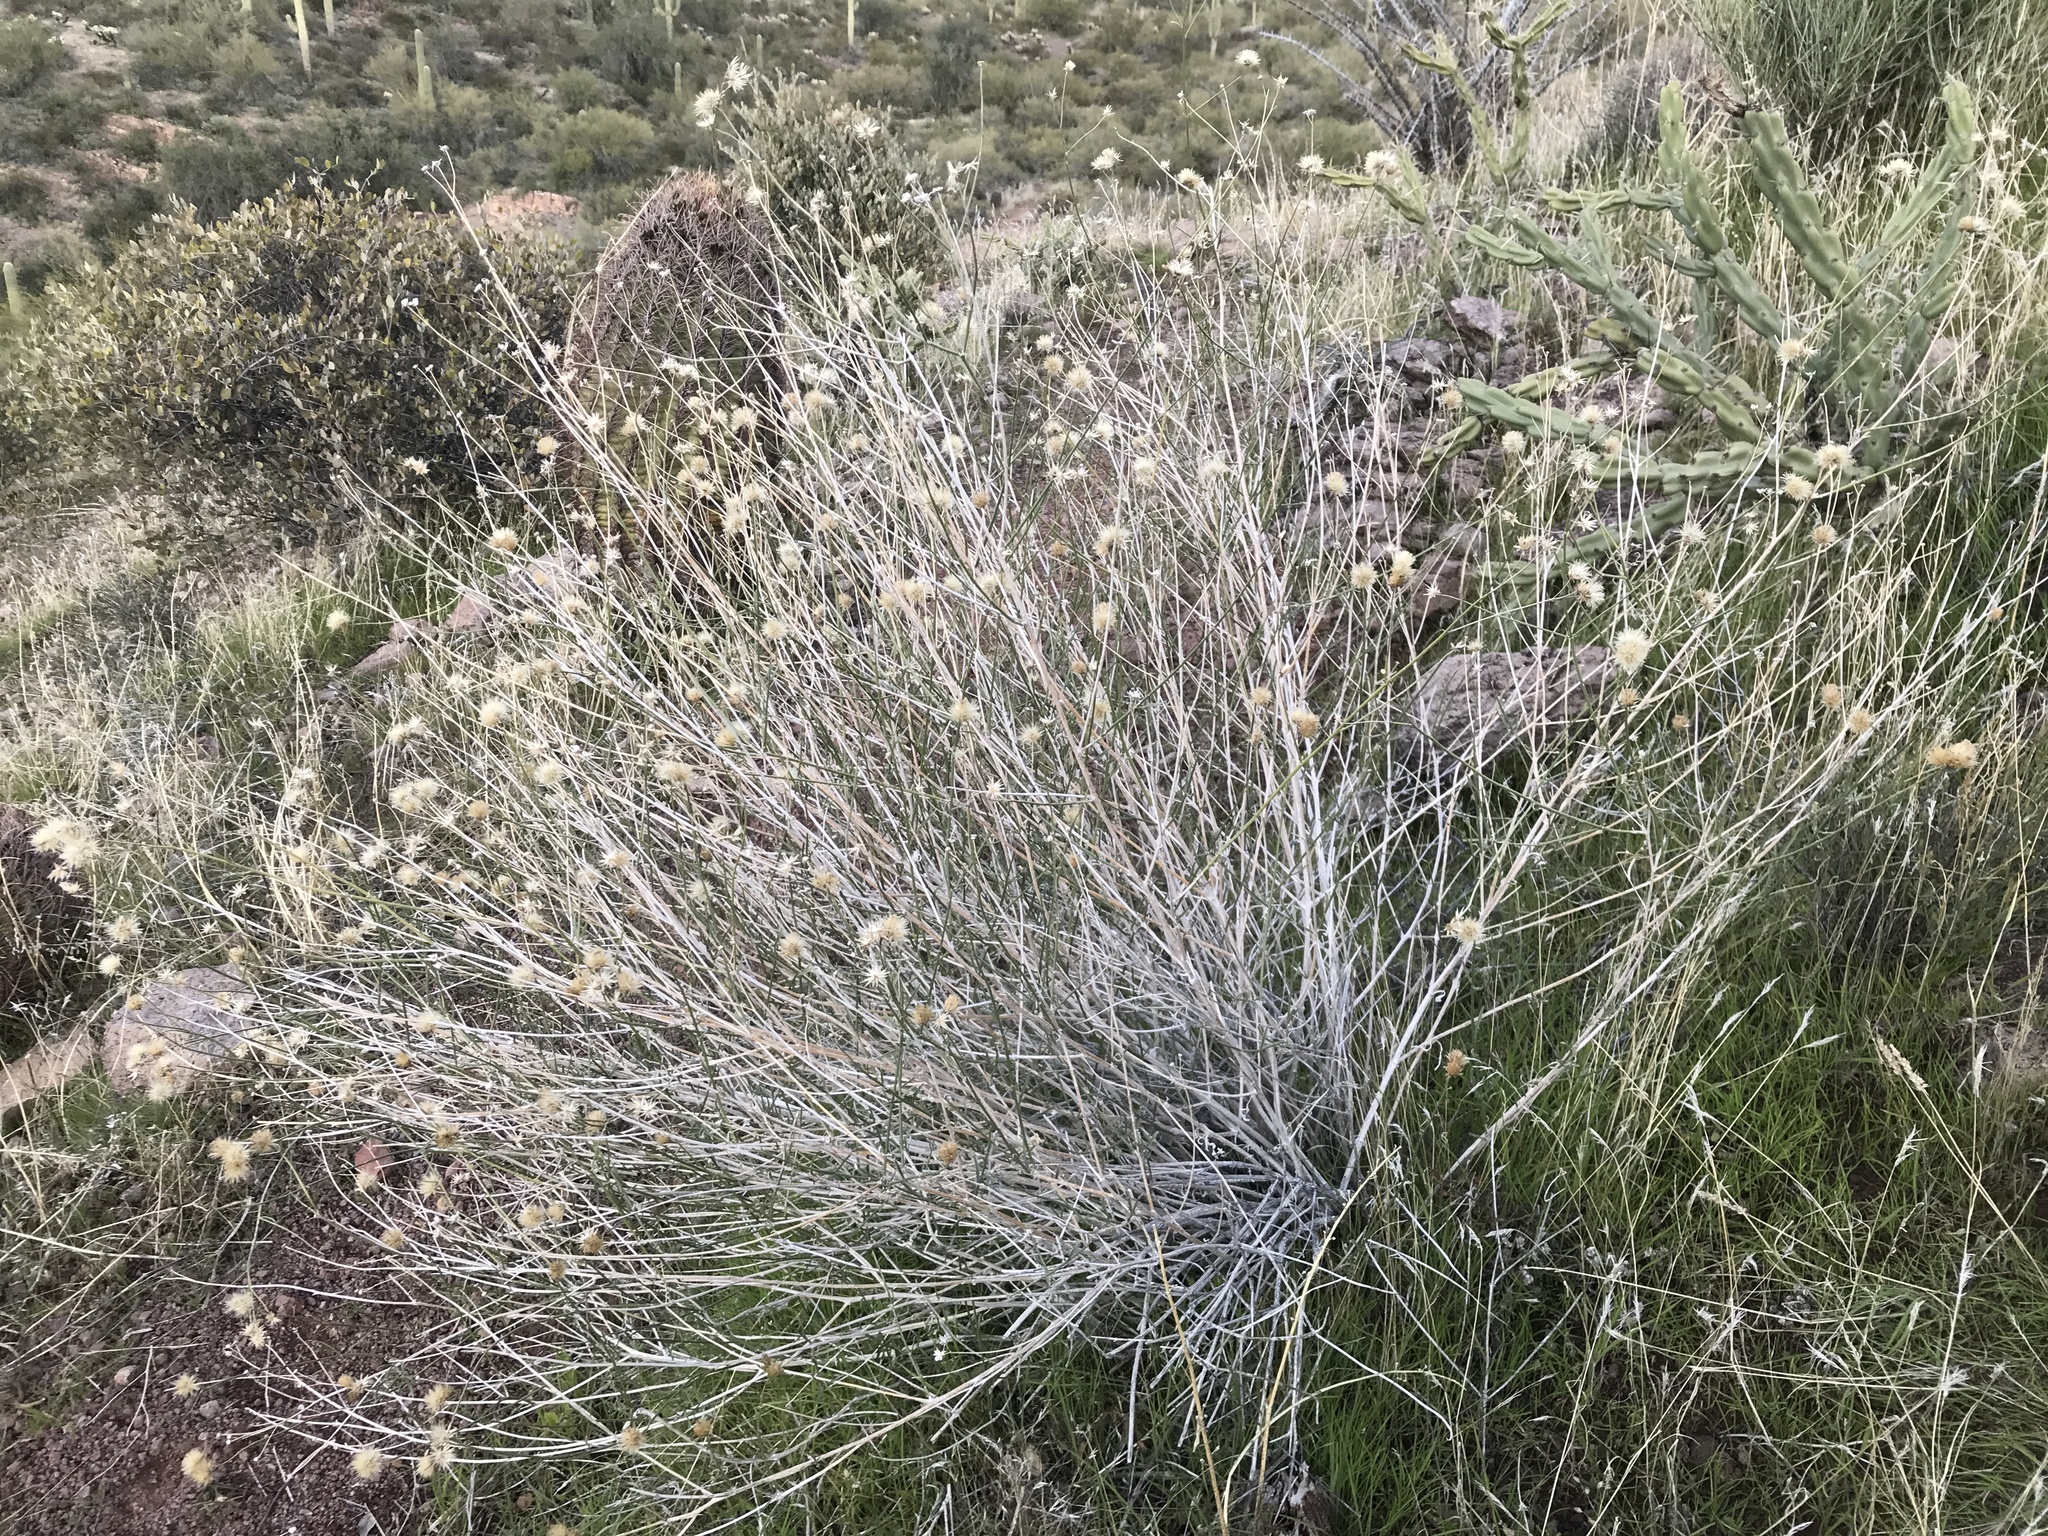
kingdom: Plantae
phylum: Tracheophyta
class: Magnoliopsida
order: Asterales
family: Asteraceae
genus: Bebbia
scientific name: Bebbia juncea
